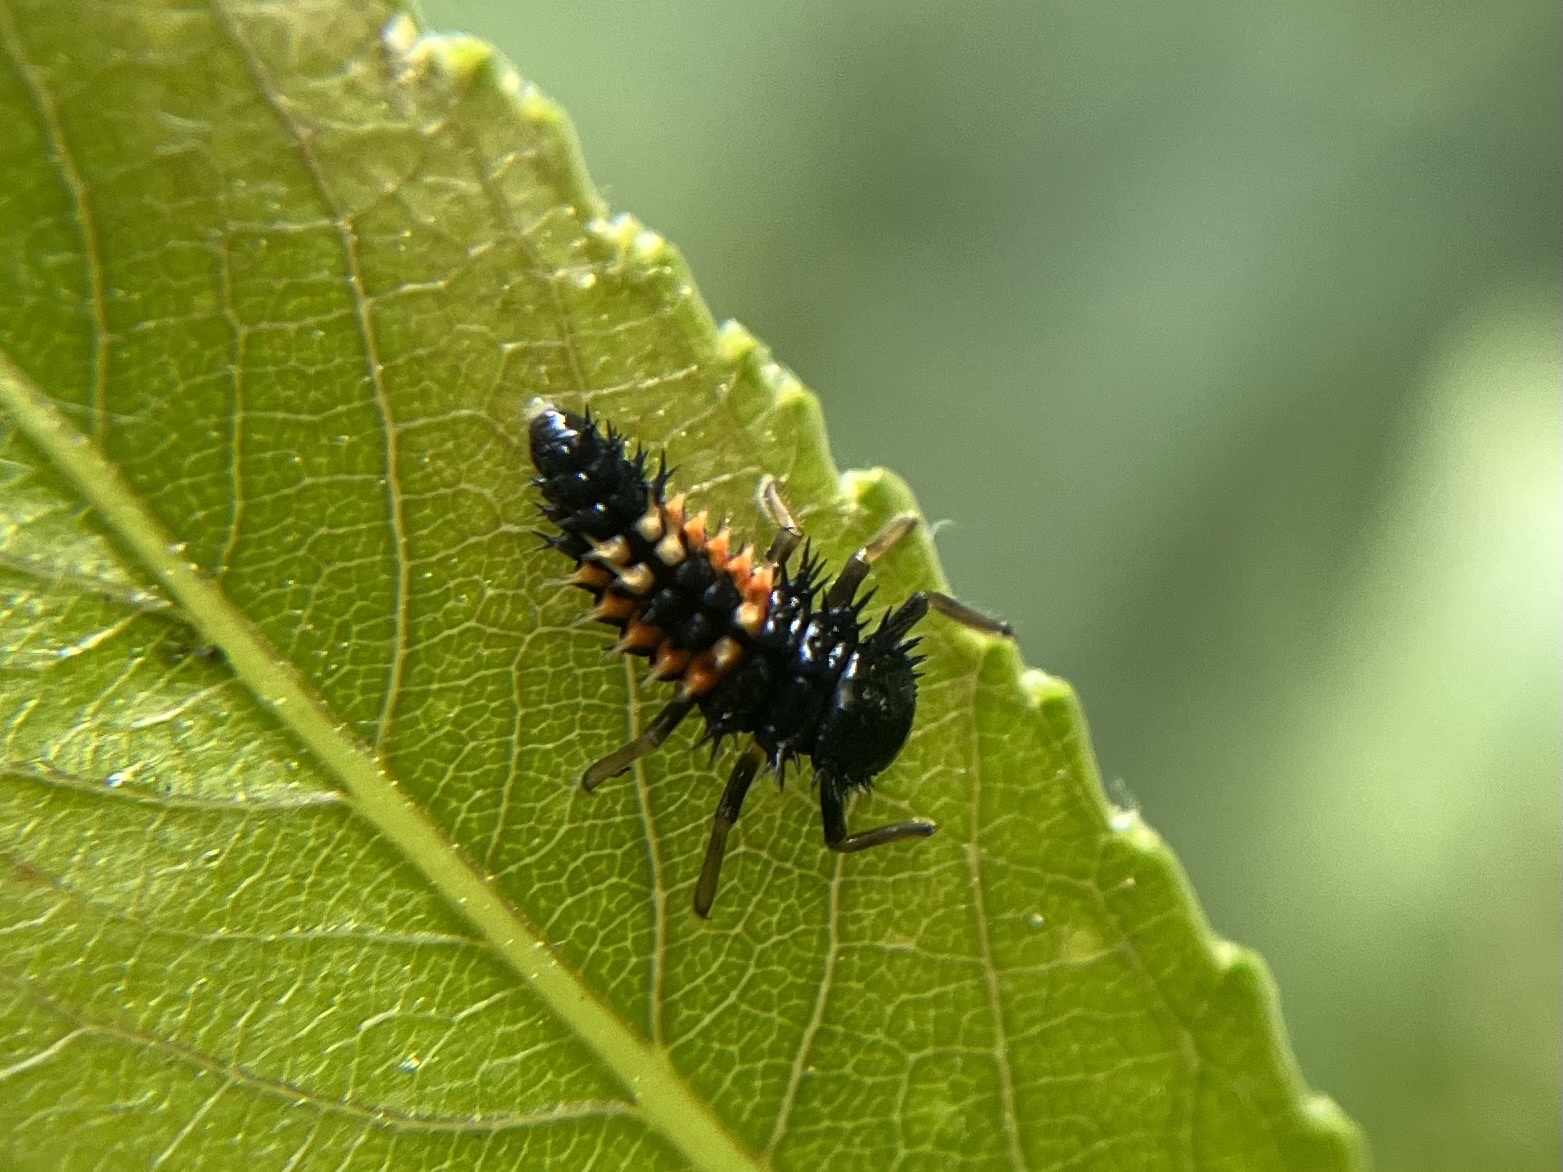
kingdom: Animalia
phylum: Arthropoda
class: Insecta
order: Coleoptera
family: Coccinellidae
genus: Harmonia
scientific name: Harmonia axyridis
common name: Harlequin ladybird
